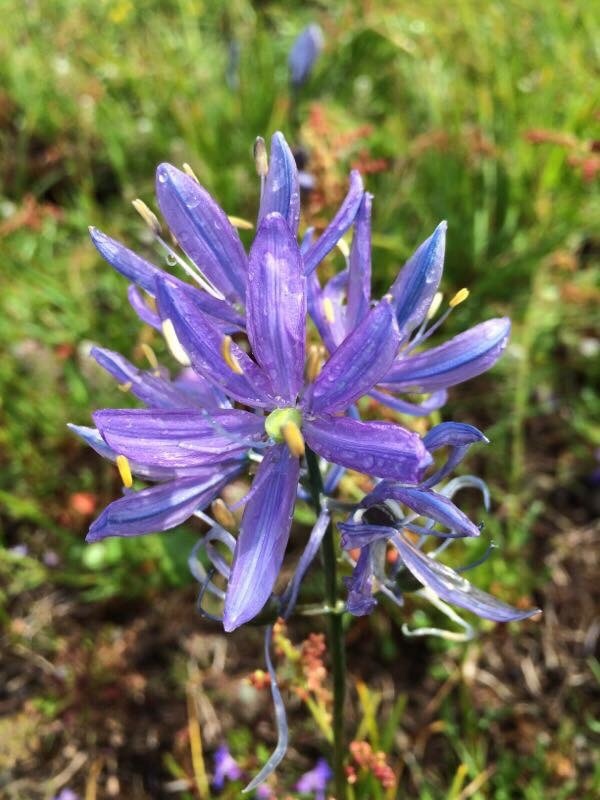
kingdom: Plantae
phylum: Tracheophyta
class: Liliopsida
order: Asparagales
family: Asparagaceae
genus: Camassia
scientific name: Camassia quamash
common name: Common camas
